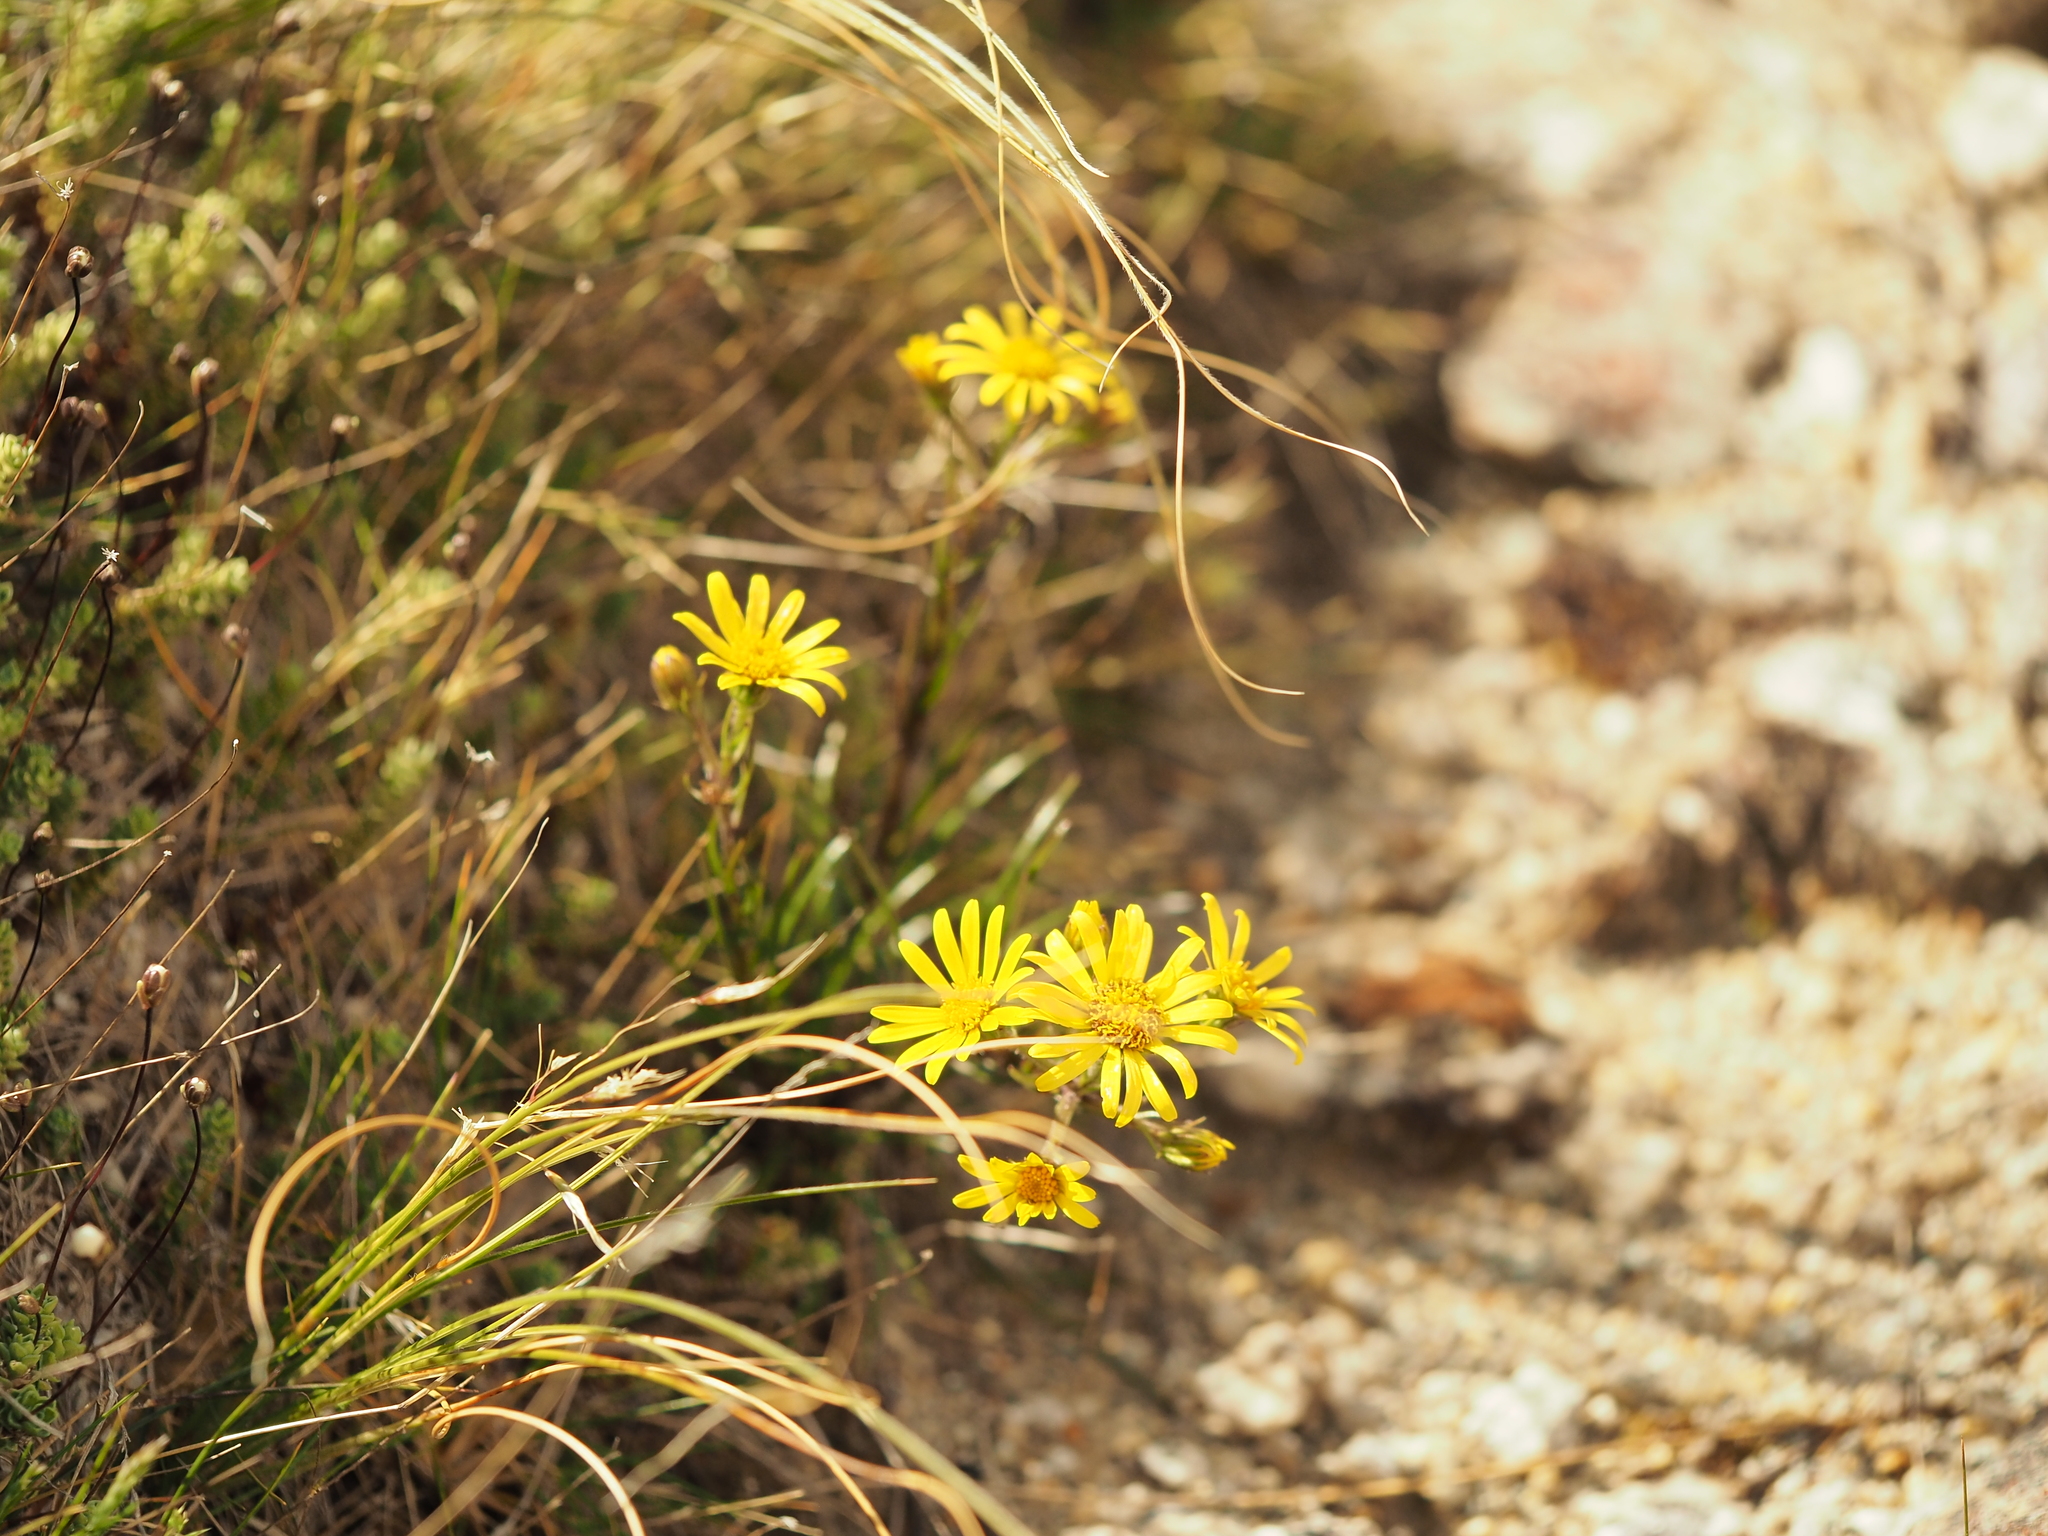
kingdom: Plantae
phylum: Tracheophyta
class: Magnoliopsida
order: Asterales
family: Asteraceae
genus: Dolichoglottis
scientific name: Dolichoglottis lyallii
